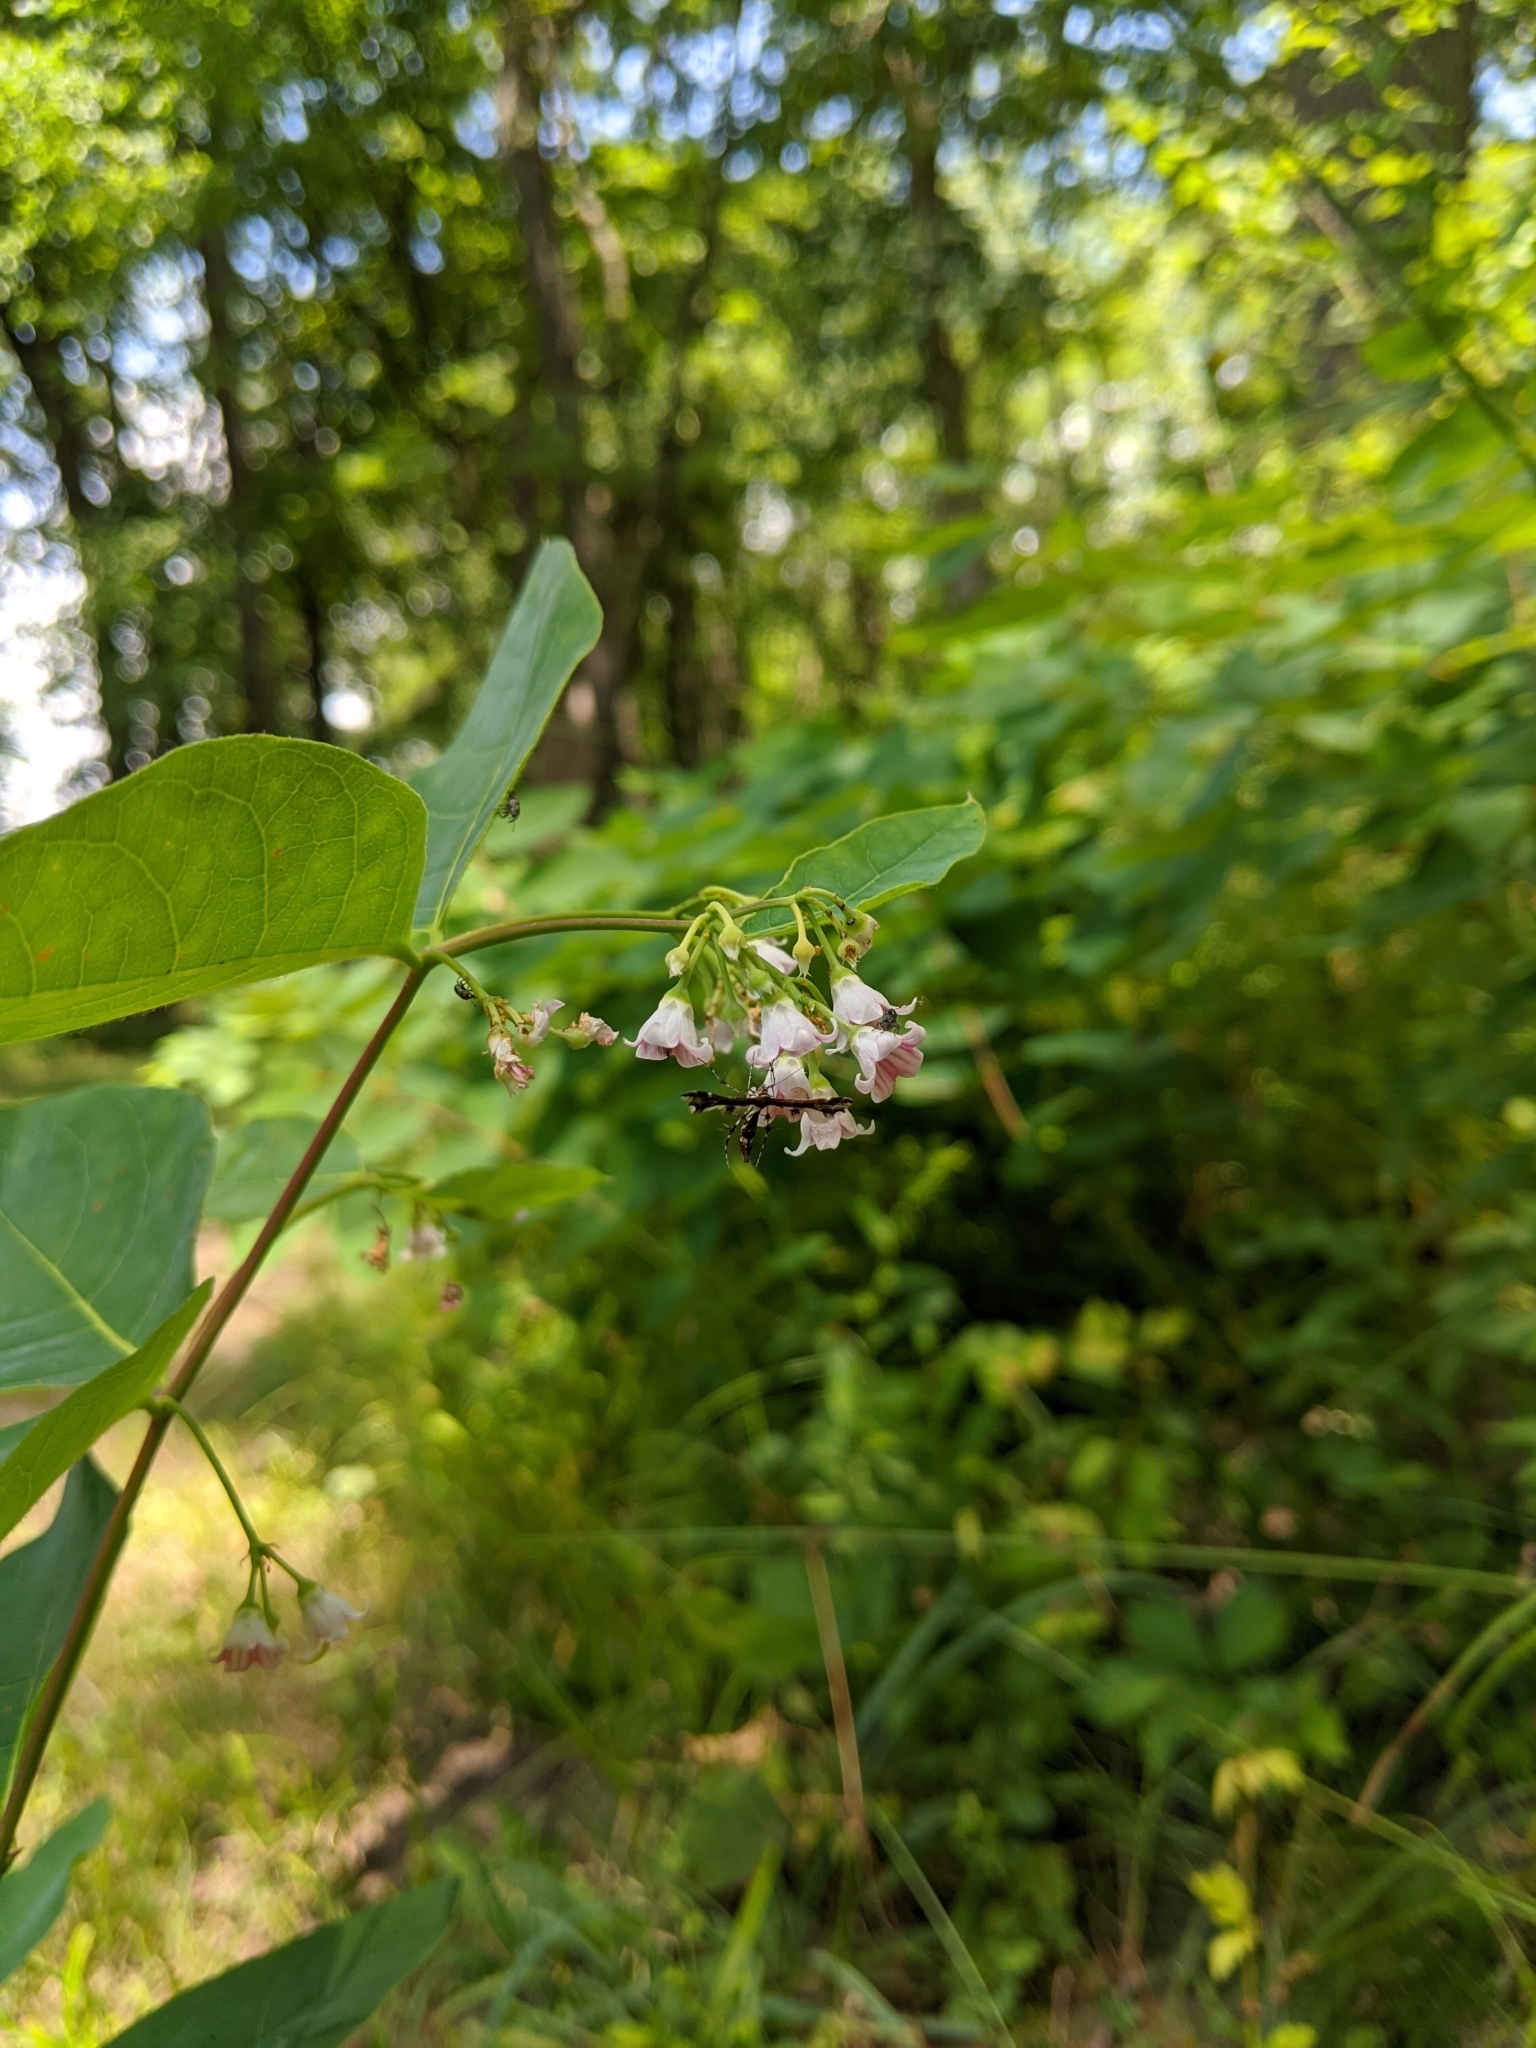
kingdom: Plantae
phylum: Tracheophyta
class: Magnoliopsida
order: Gentianales
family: Apocynaceae
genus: Apocynum
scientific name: Apocynum androsaemifolium
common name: Spreading dogbane
